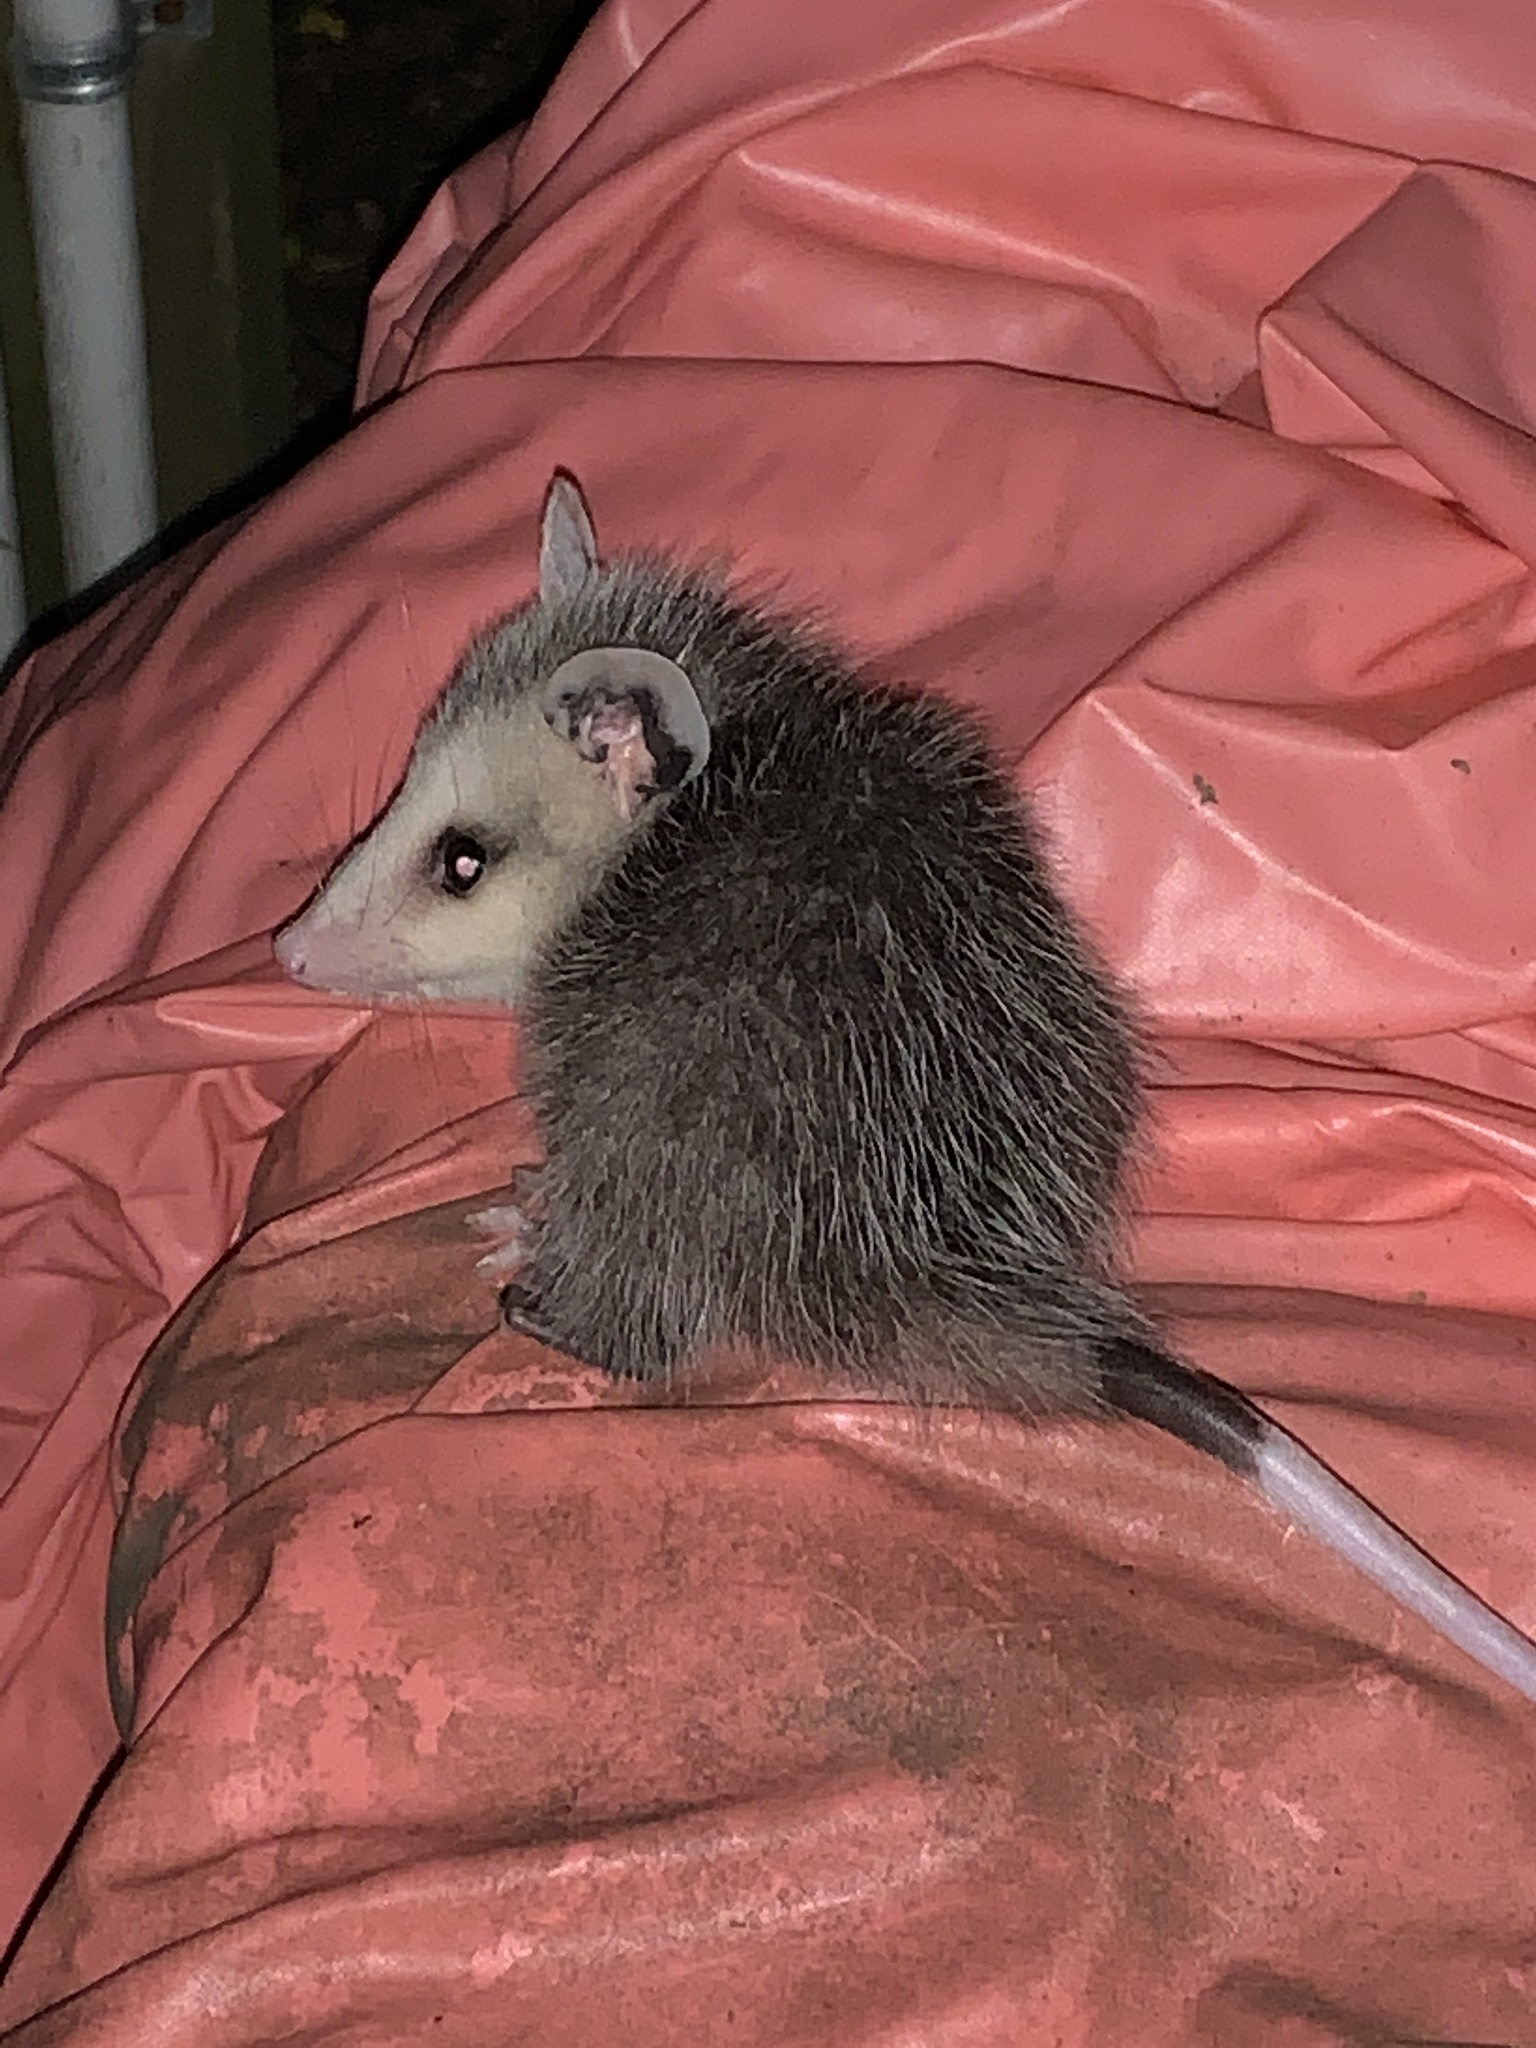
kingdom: Animalia
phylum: Chordata
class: Mammalia
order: Didelphimorphia
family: Didelphidae
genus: Didelphis
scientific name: Didelphis virginiana
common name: Virginia opossum
